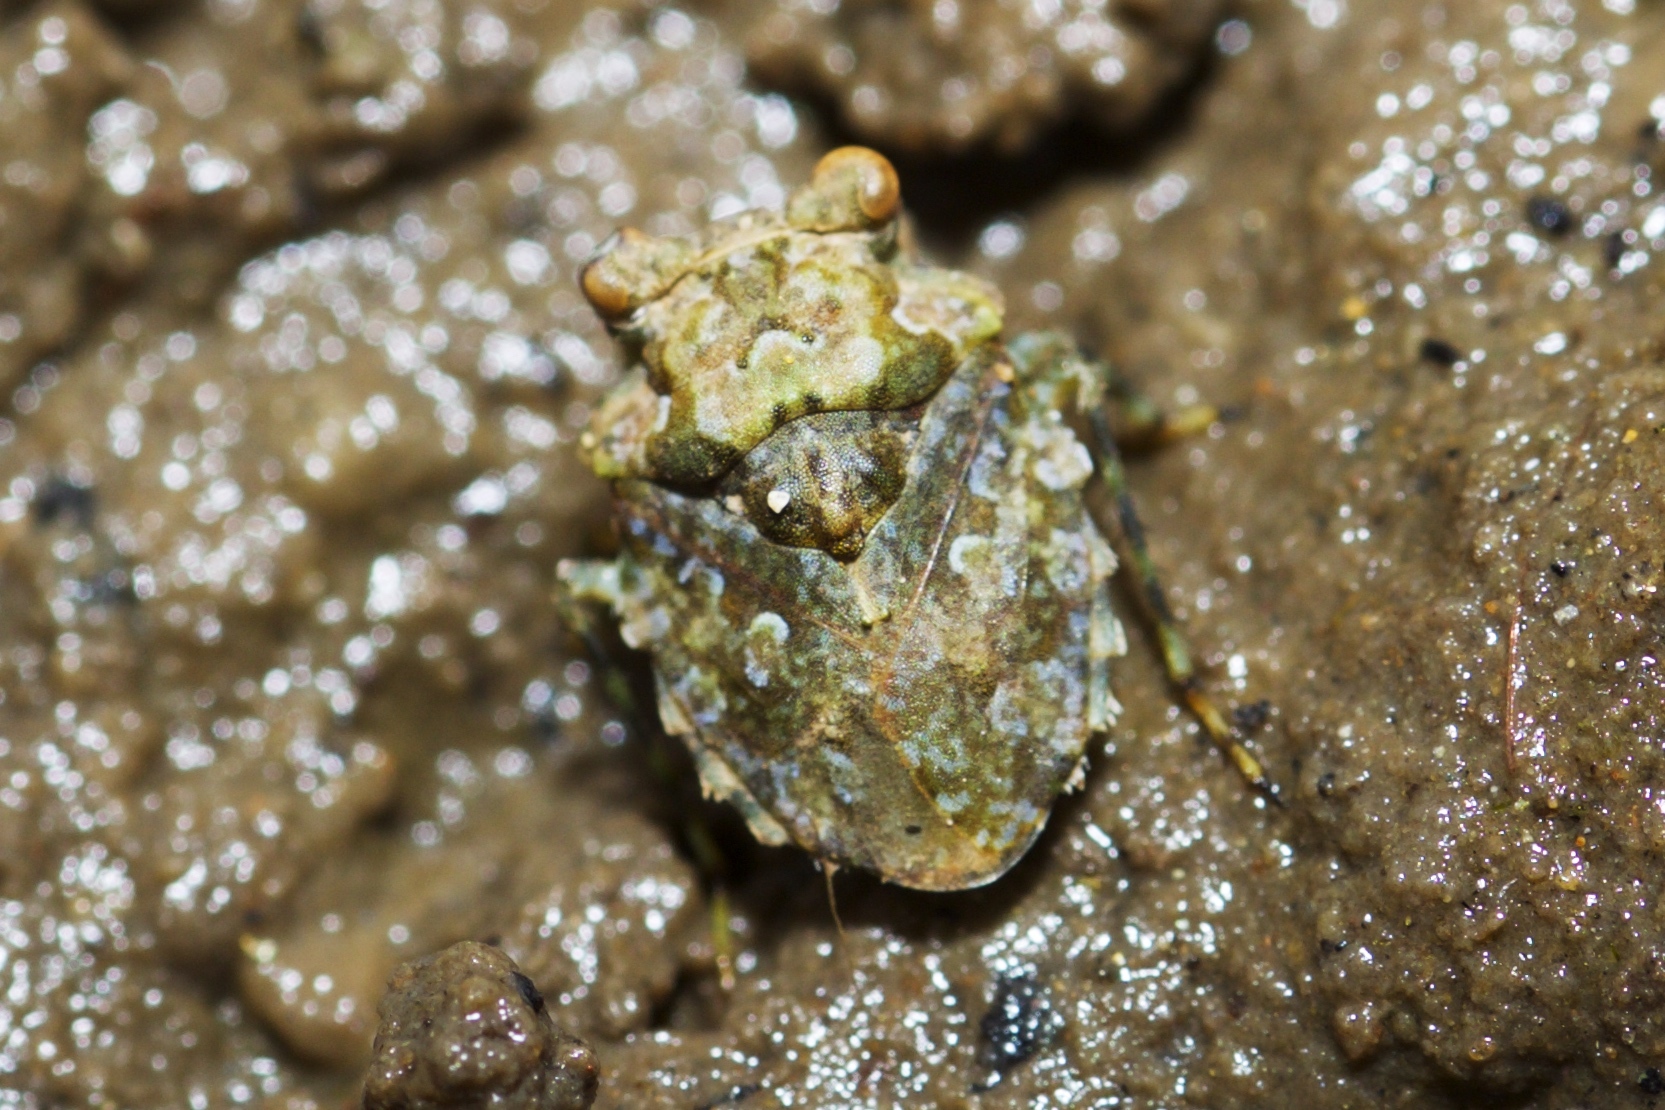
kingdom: Animalia
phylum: Arthropoda
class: Insecta
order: Hemiptera
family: Gelastocoridae
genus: Gelastocoris
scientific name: Gelastocoris
